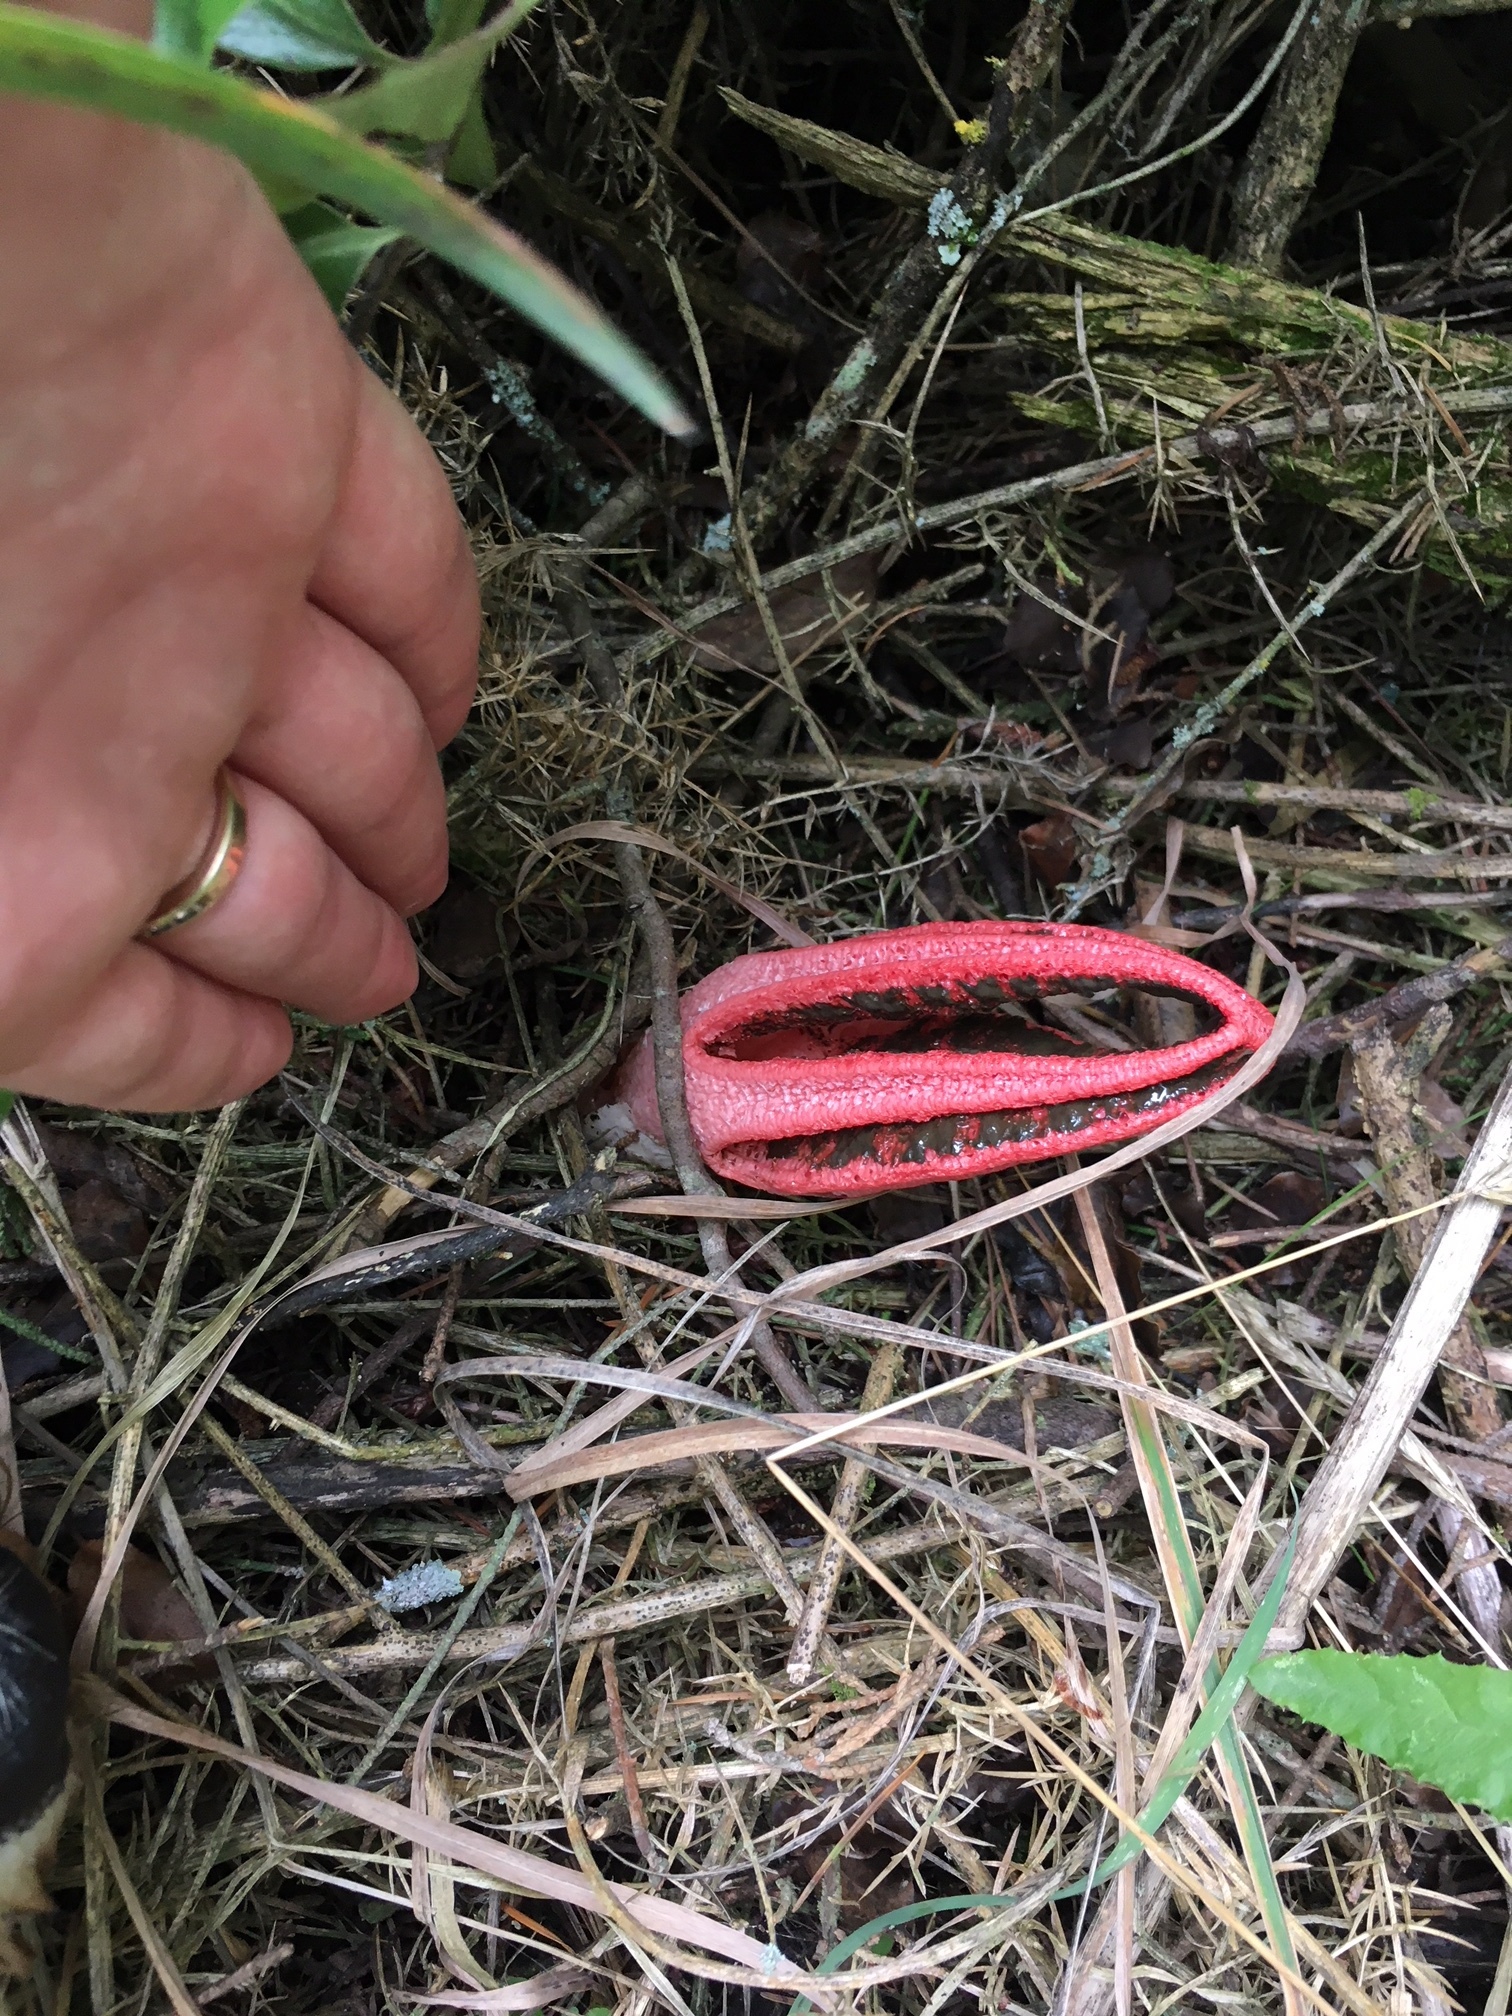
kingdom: Fungi
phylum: Basidiomycota
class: Agaricomycetes
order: Phallales
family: Phallaceae
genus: Clathrus
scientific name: Clathrus archeri
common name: Devil's fingers
